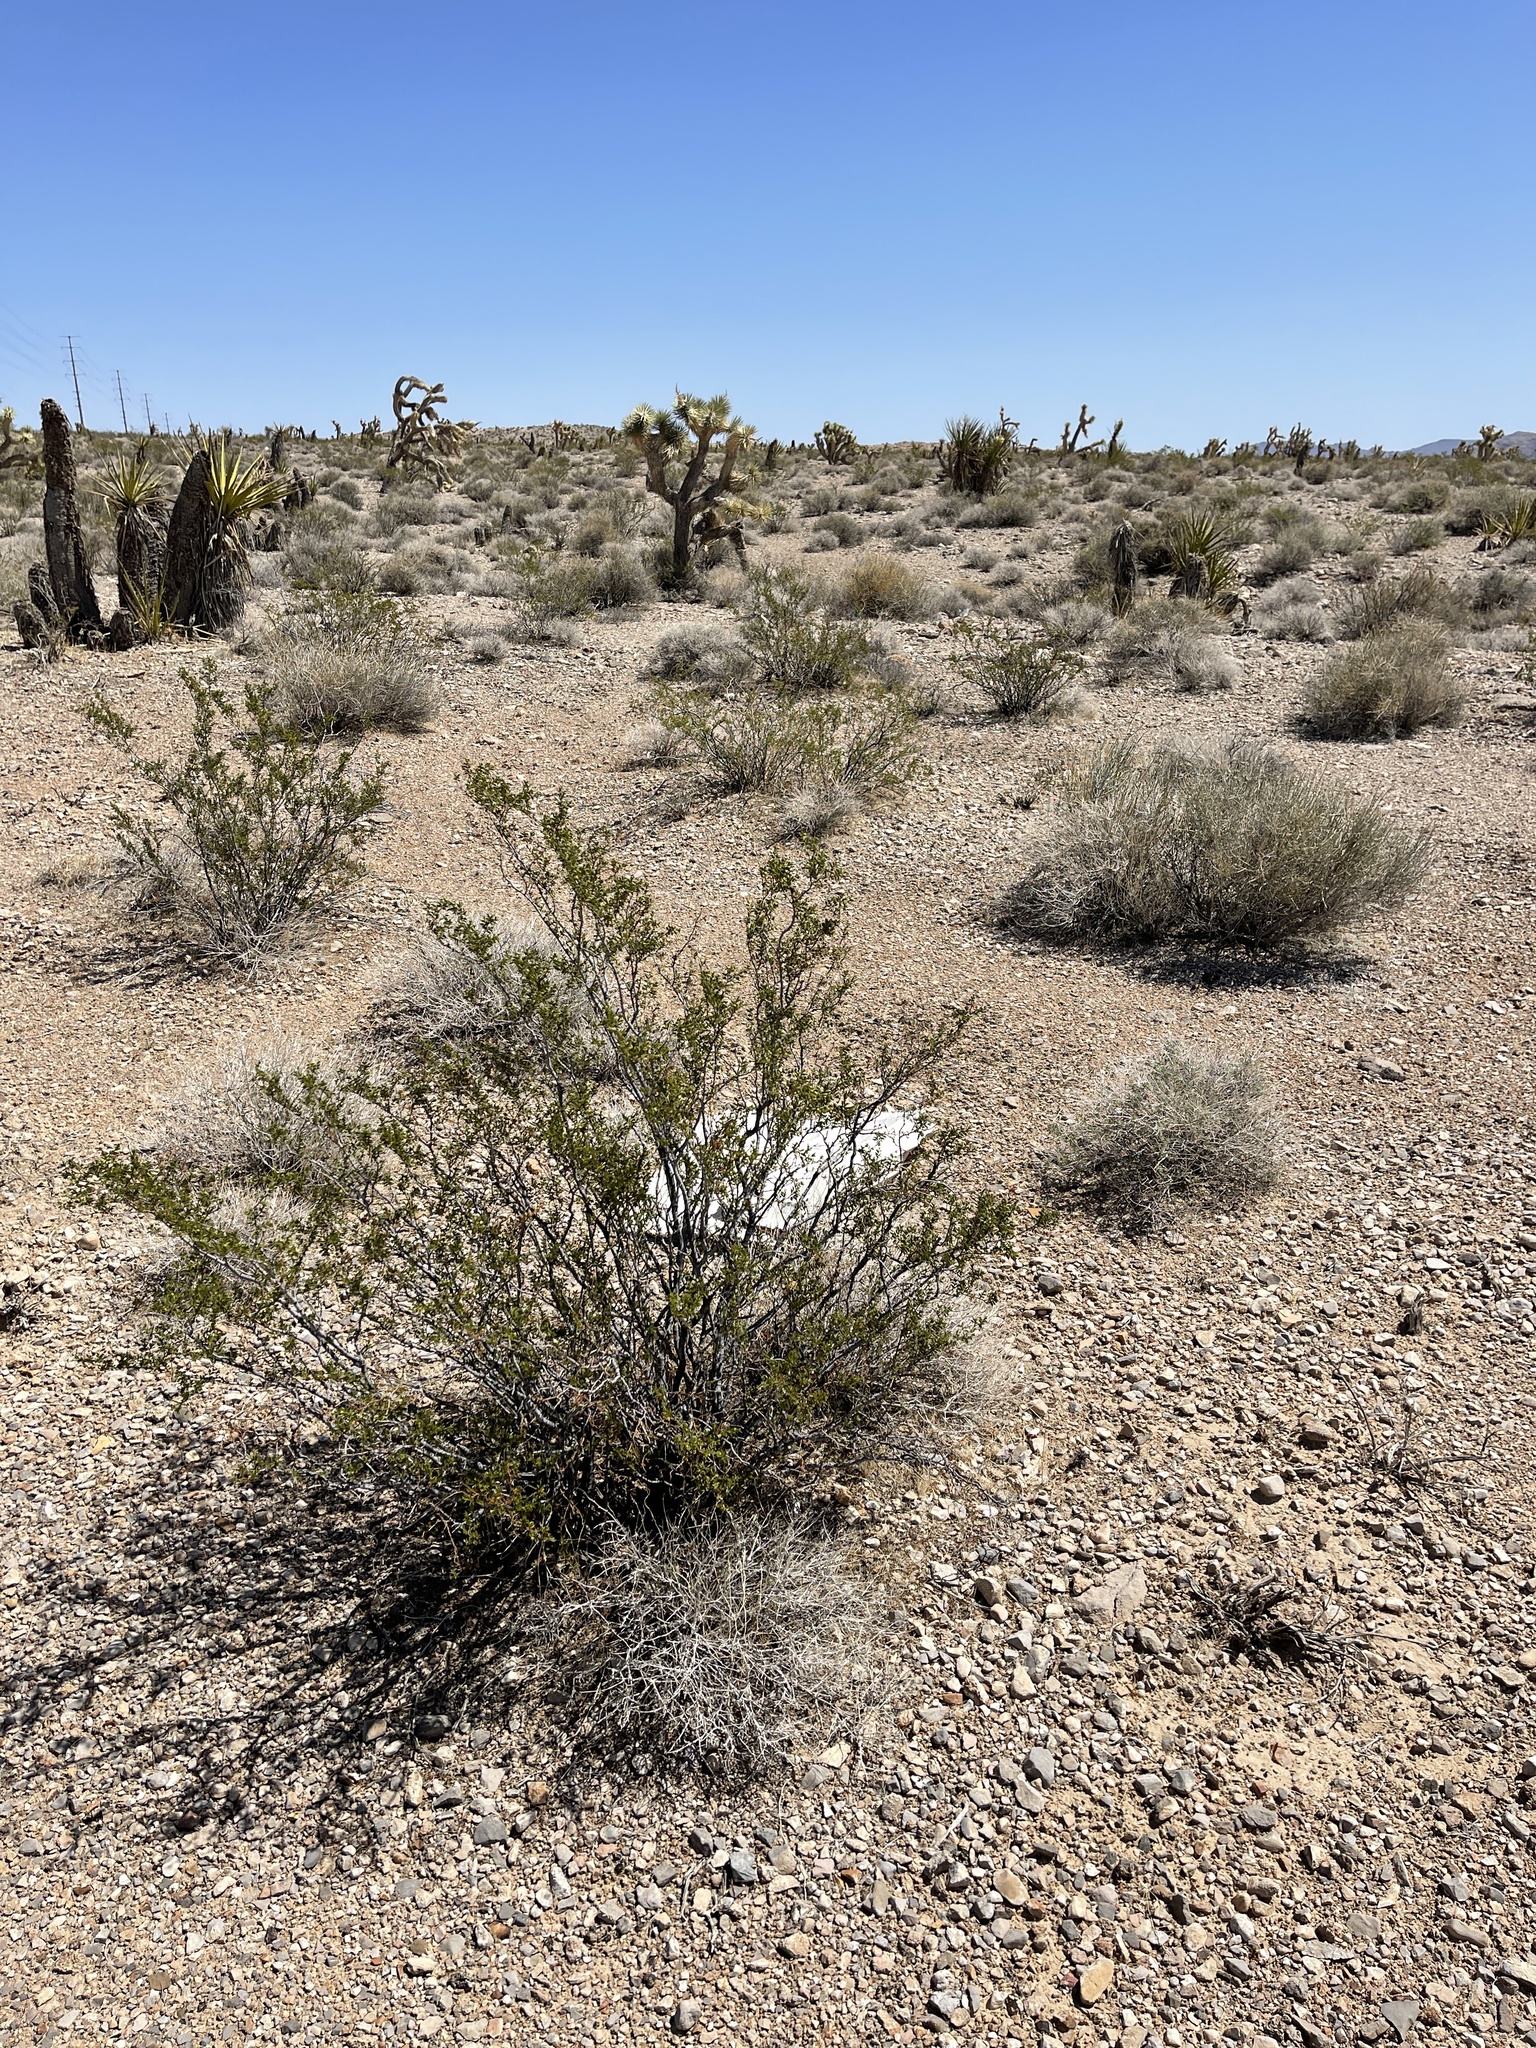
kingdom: Plantae
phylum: Tracheophyta
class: Magnoliopsida
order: Zygophyllales
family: Zygophyllaceae
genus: Larrea
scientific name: Larrea tridentata
